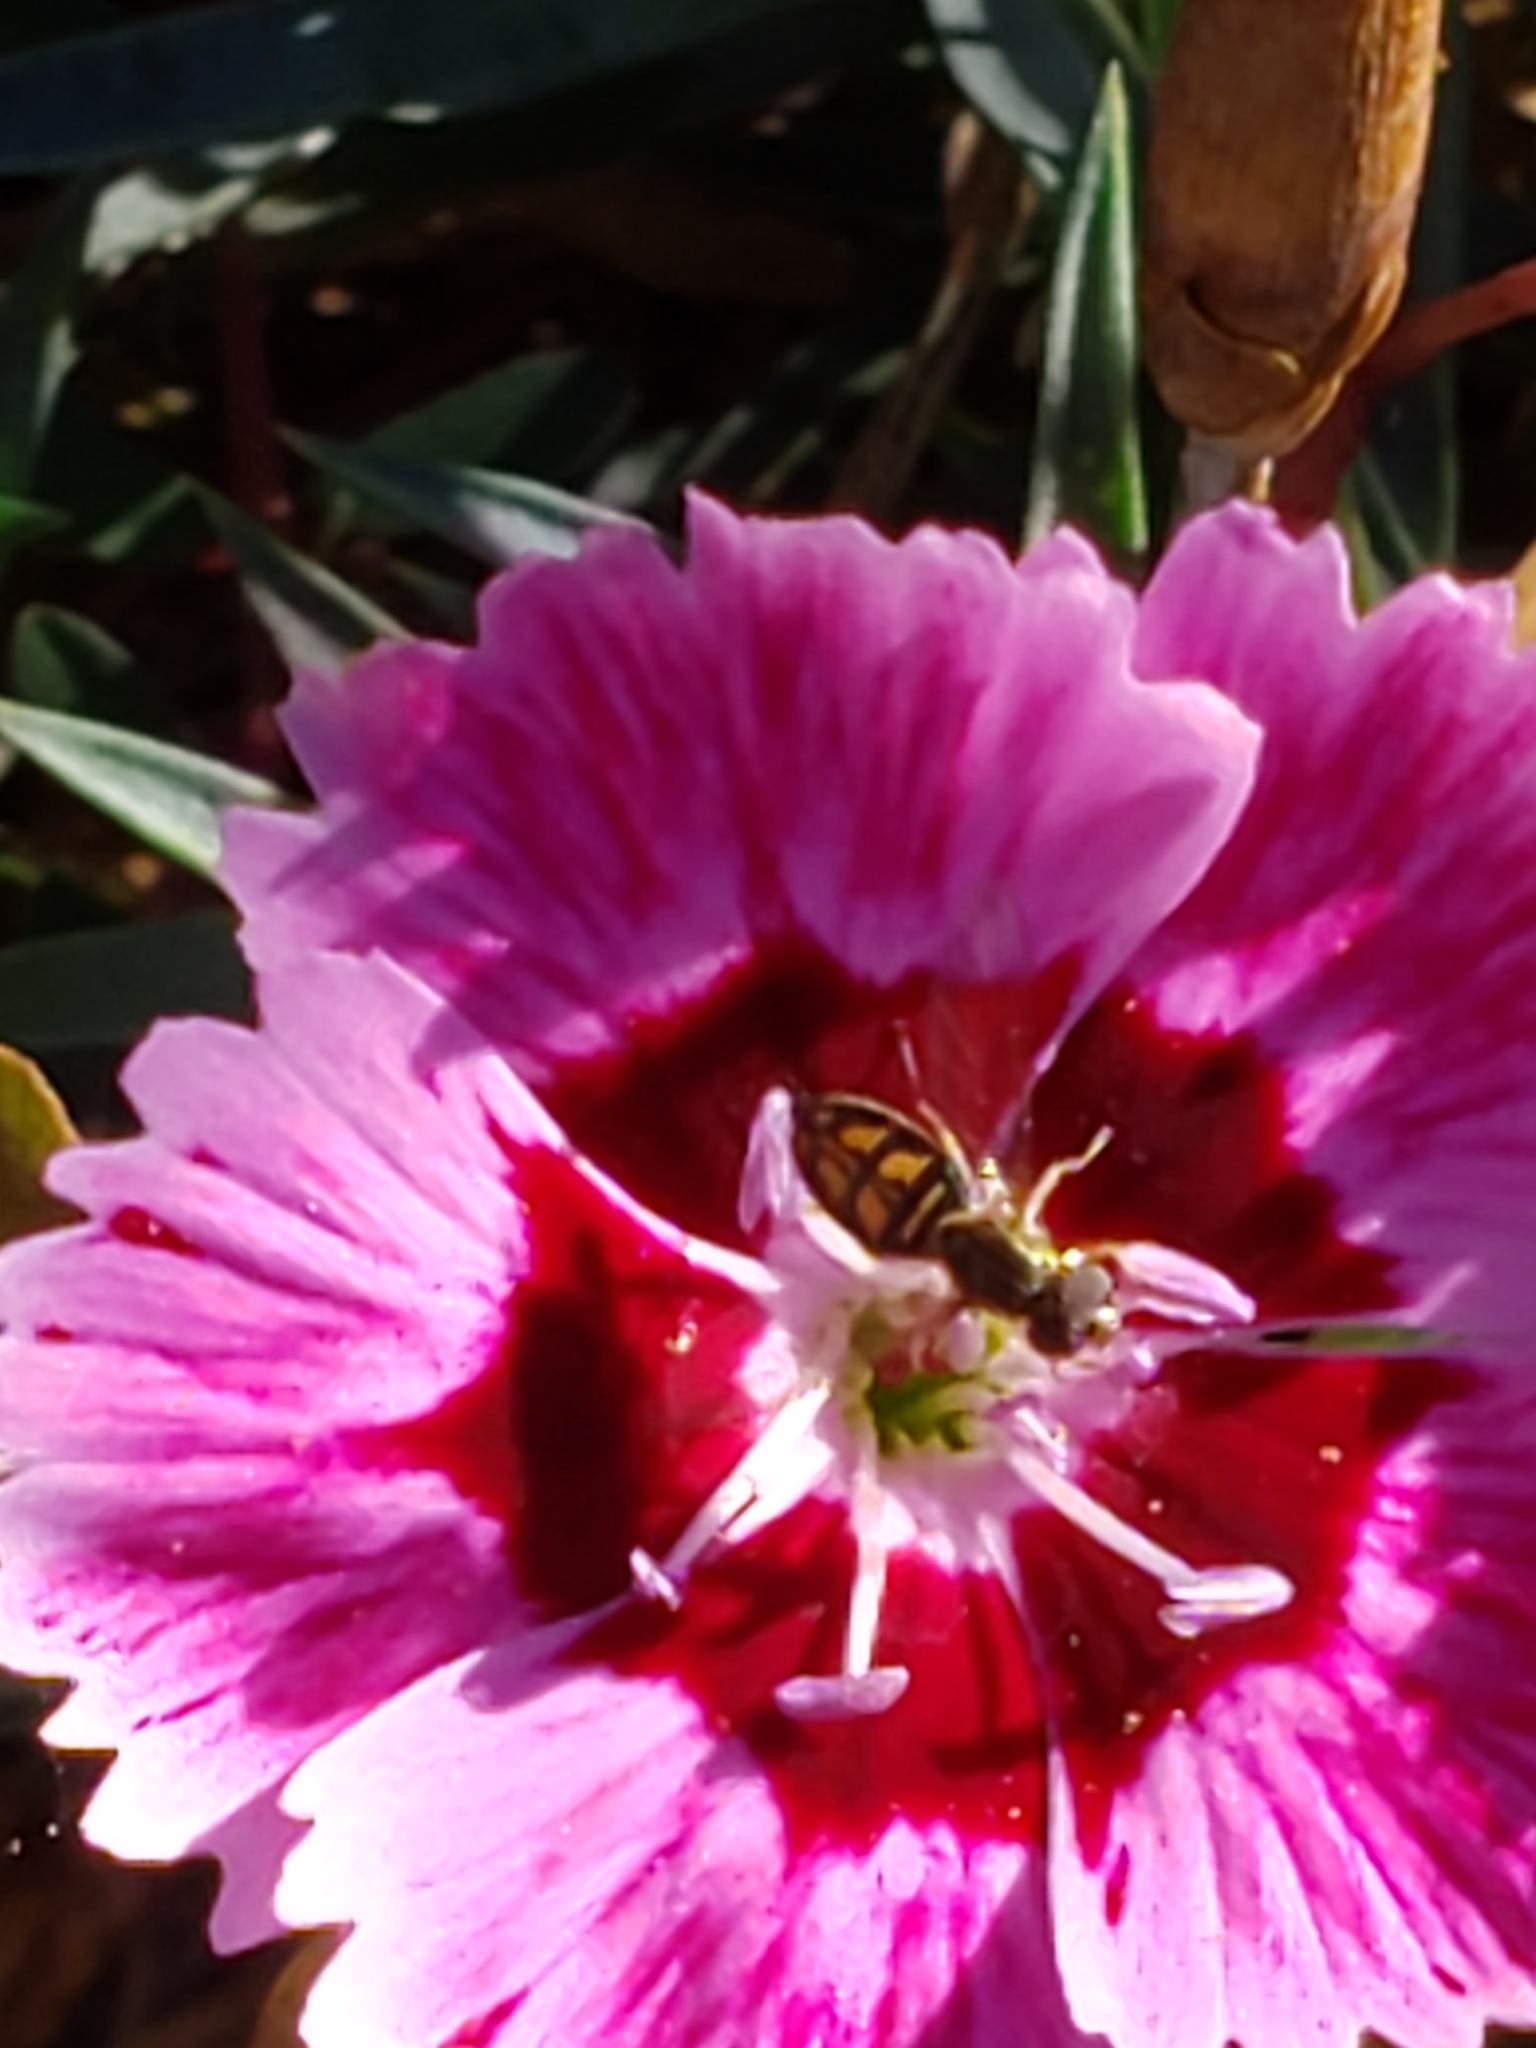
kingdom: Animalia
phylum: Arthropoda
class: Insecta
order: Diptera
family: Syrphidae
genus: Toxomerus
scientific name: Toxomerus marginatus
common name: Syrphid fly
